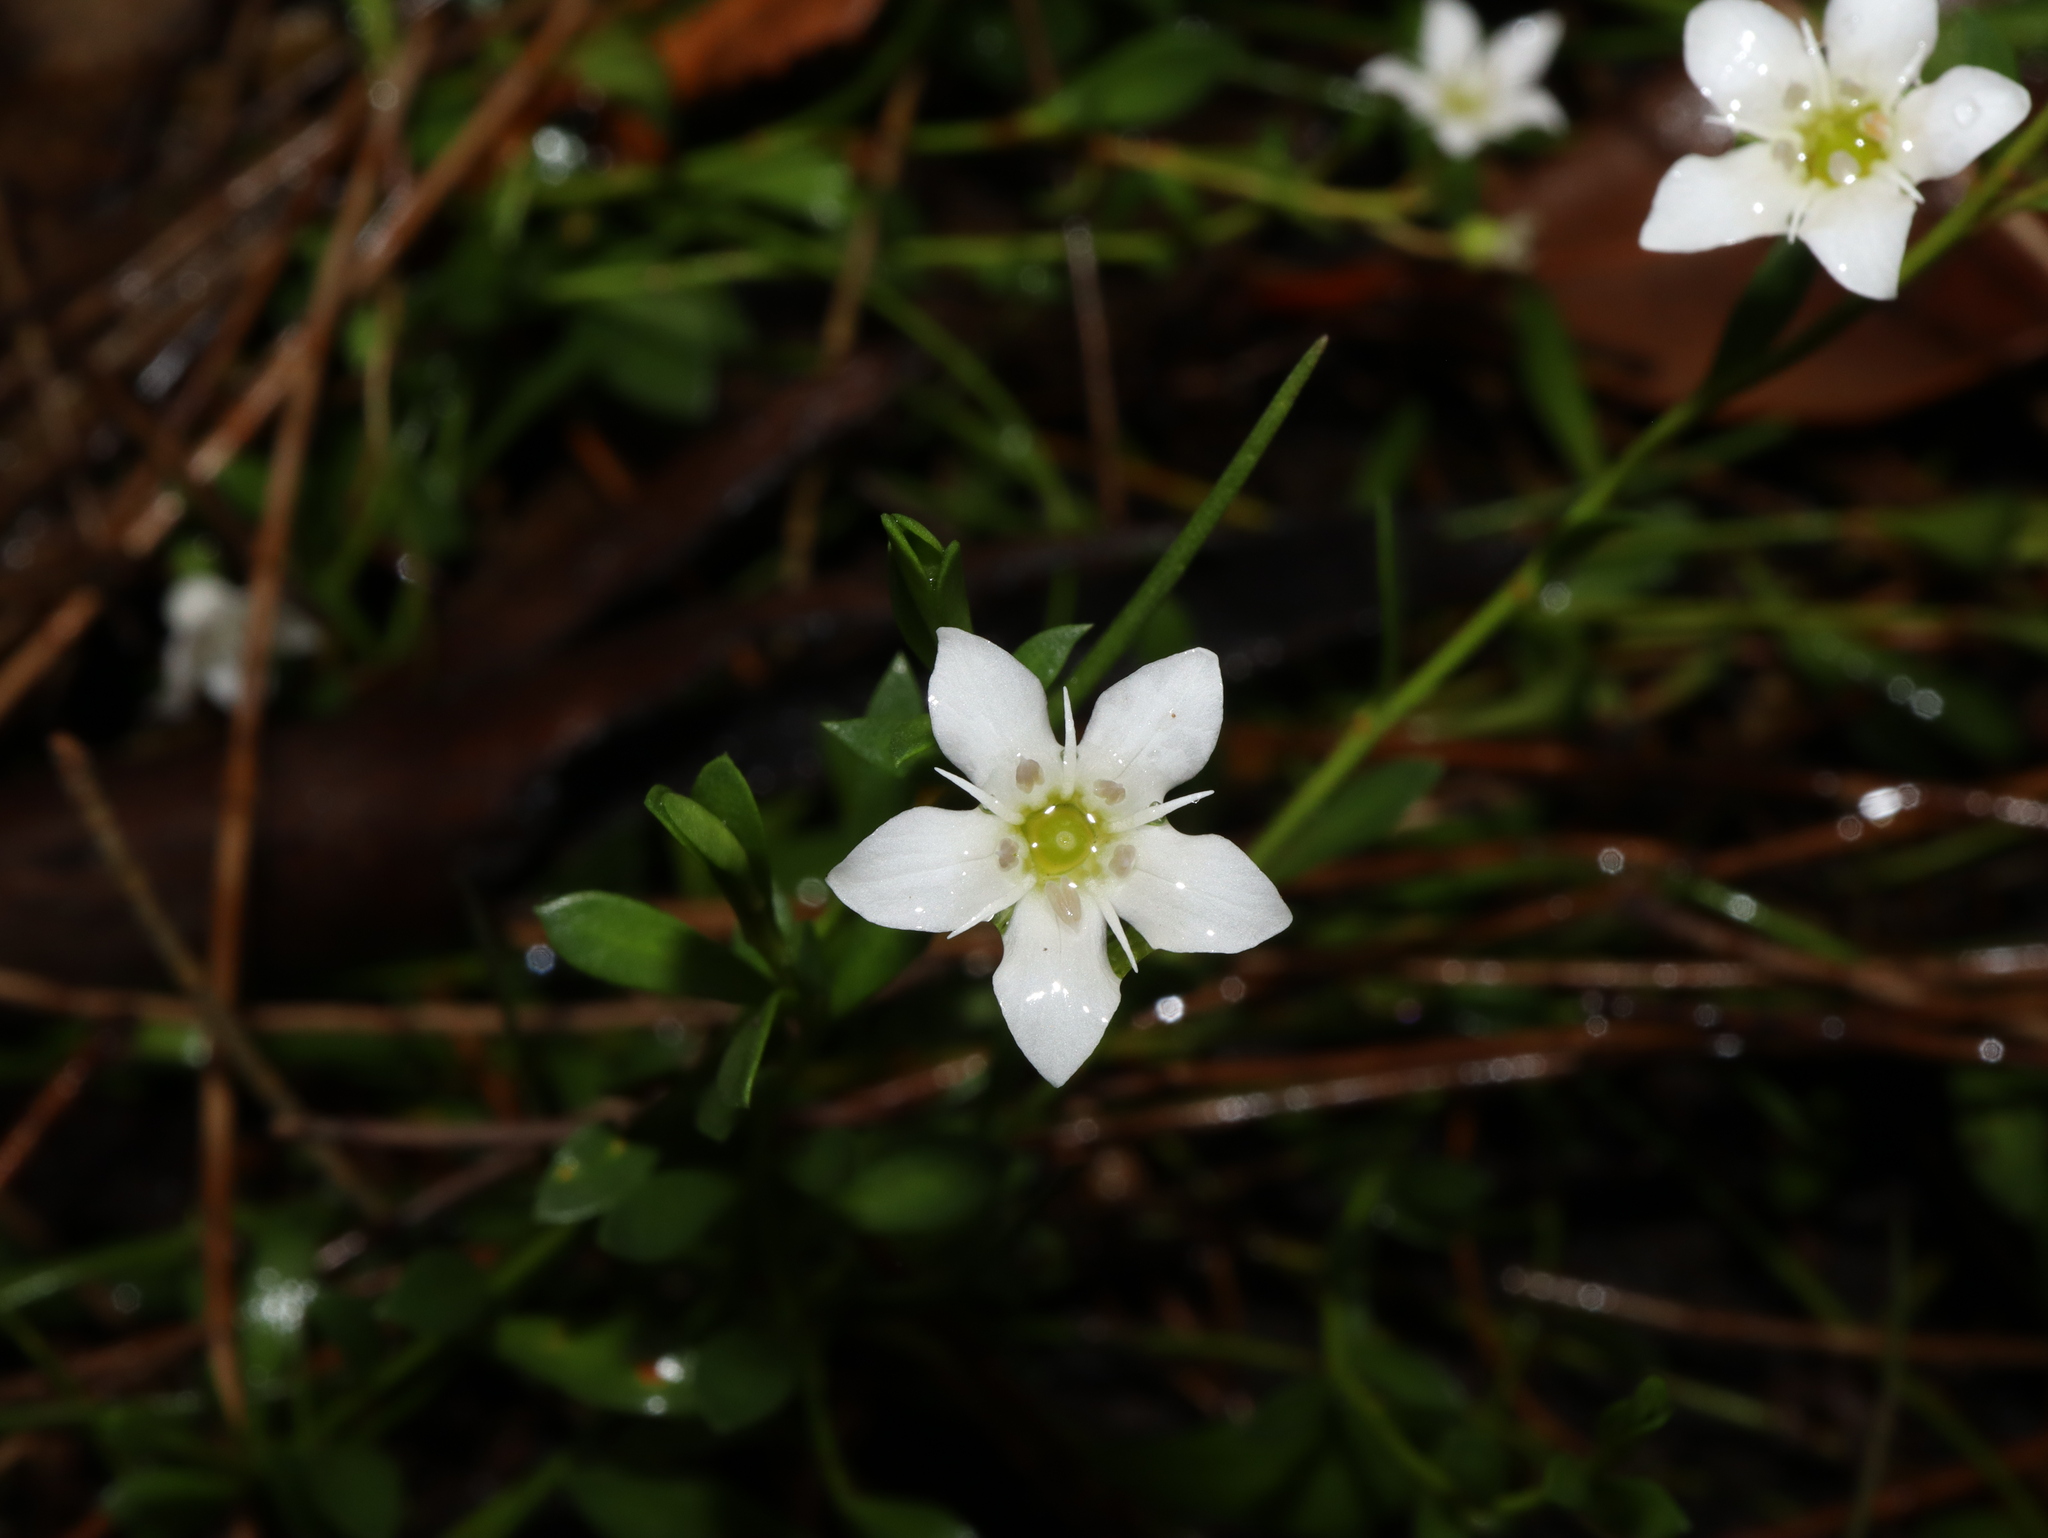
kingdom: Plantae
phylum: Tracheophyta
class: Magnoliopsida
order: Ericales
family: Primulaceae
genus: Samolus
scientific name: Samolus repens
